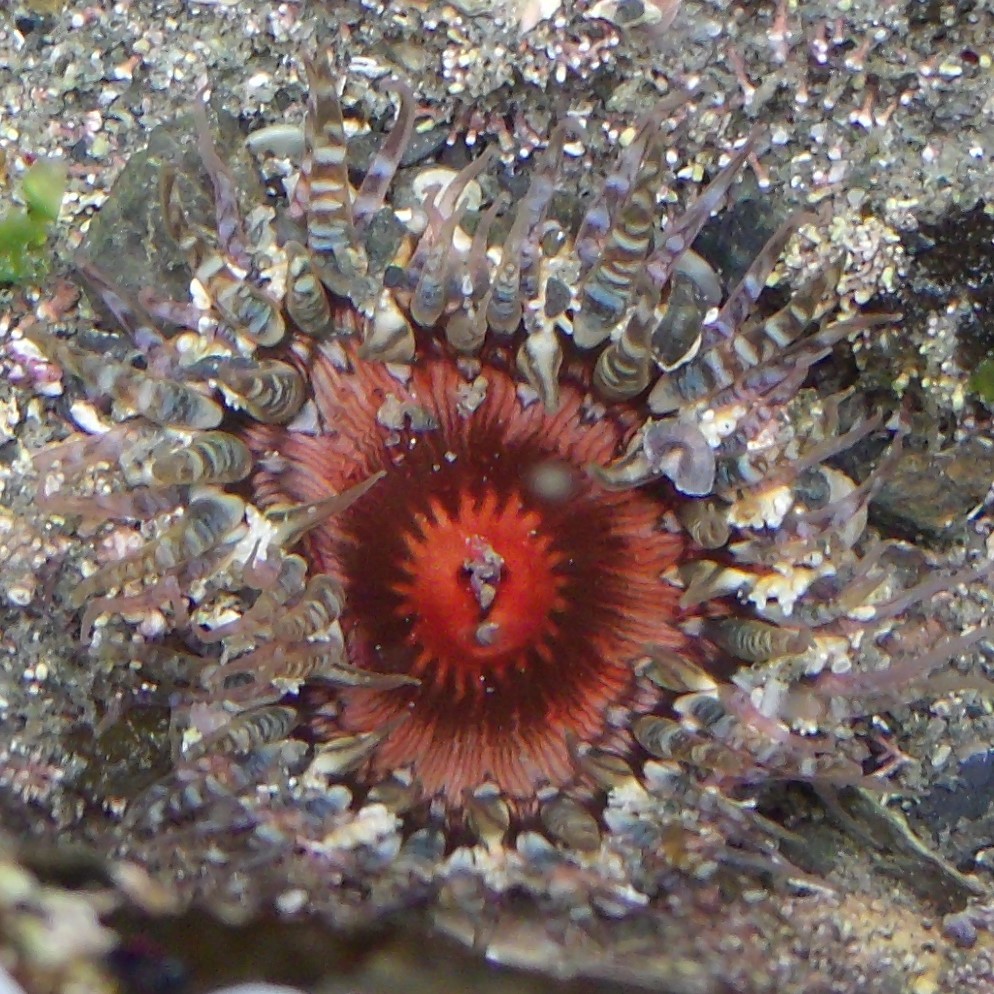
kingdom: Animalia
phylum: Cnidaria
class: Anthozoa
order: Actiniaria
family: Actiniidae
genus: Oulactis
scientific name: Oulactis muscosa
